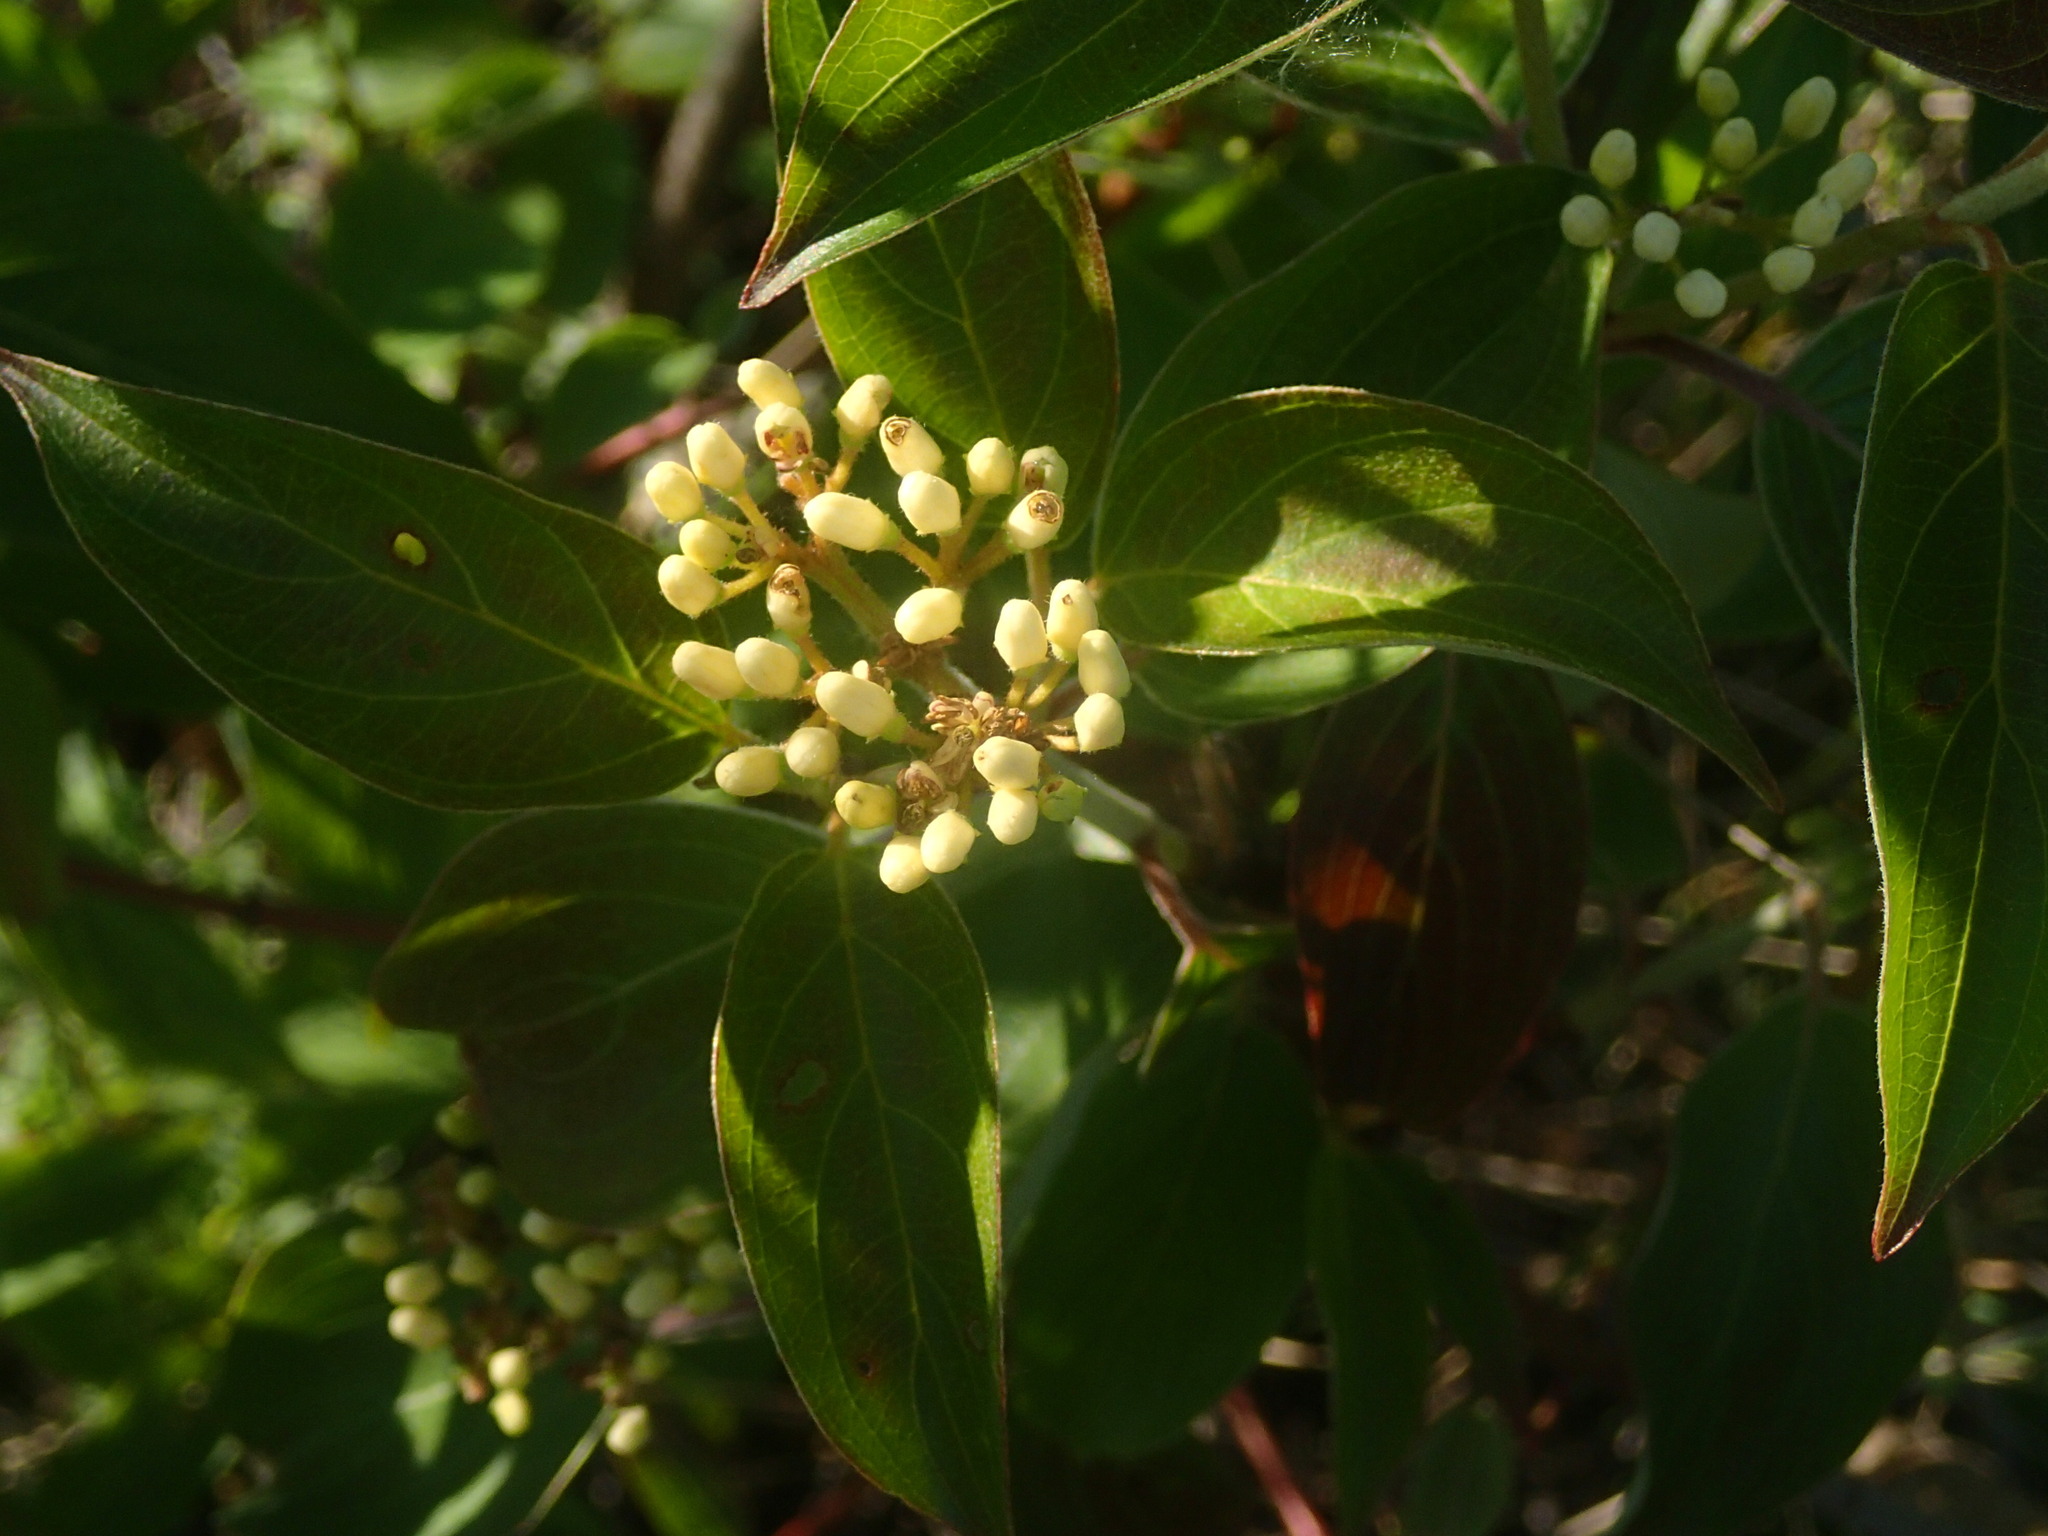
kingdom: Plantae
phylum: Tracheophyta
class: Magnoliopsida
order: Cornales
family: Cornaceae
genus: Cornus
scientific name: Cornus obliqua
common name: Pale dogwood
